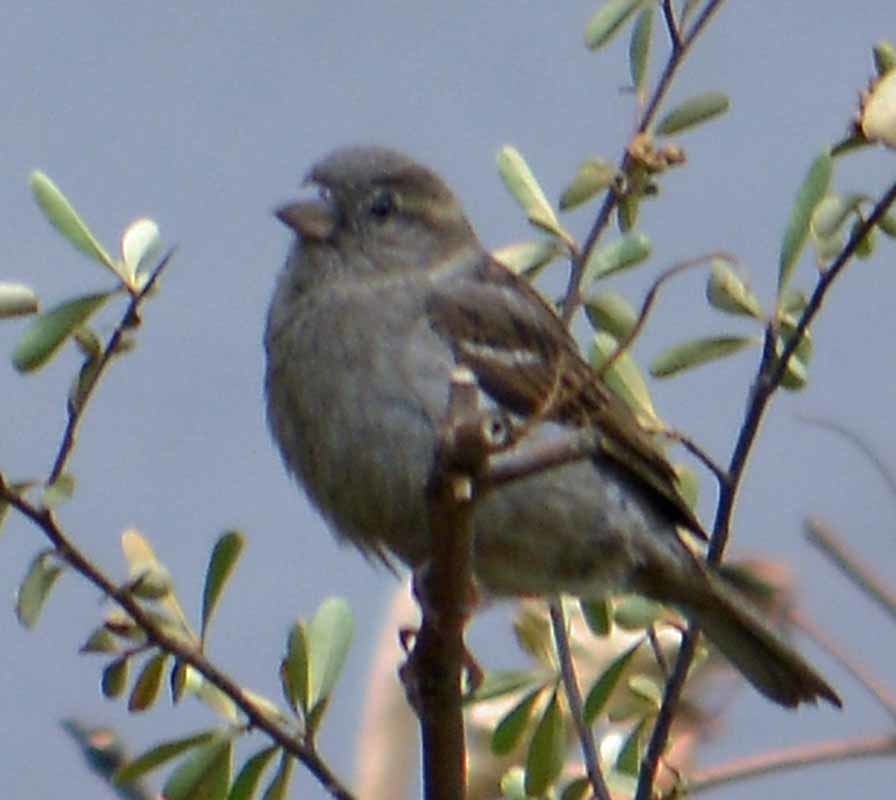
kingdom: Animalia
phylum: Chordata
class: Aves
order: Passeriformes
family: Passeridae
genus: Passer
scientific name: Passer domesticus
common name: House sparrow
